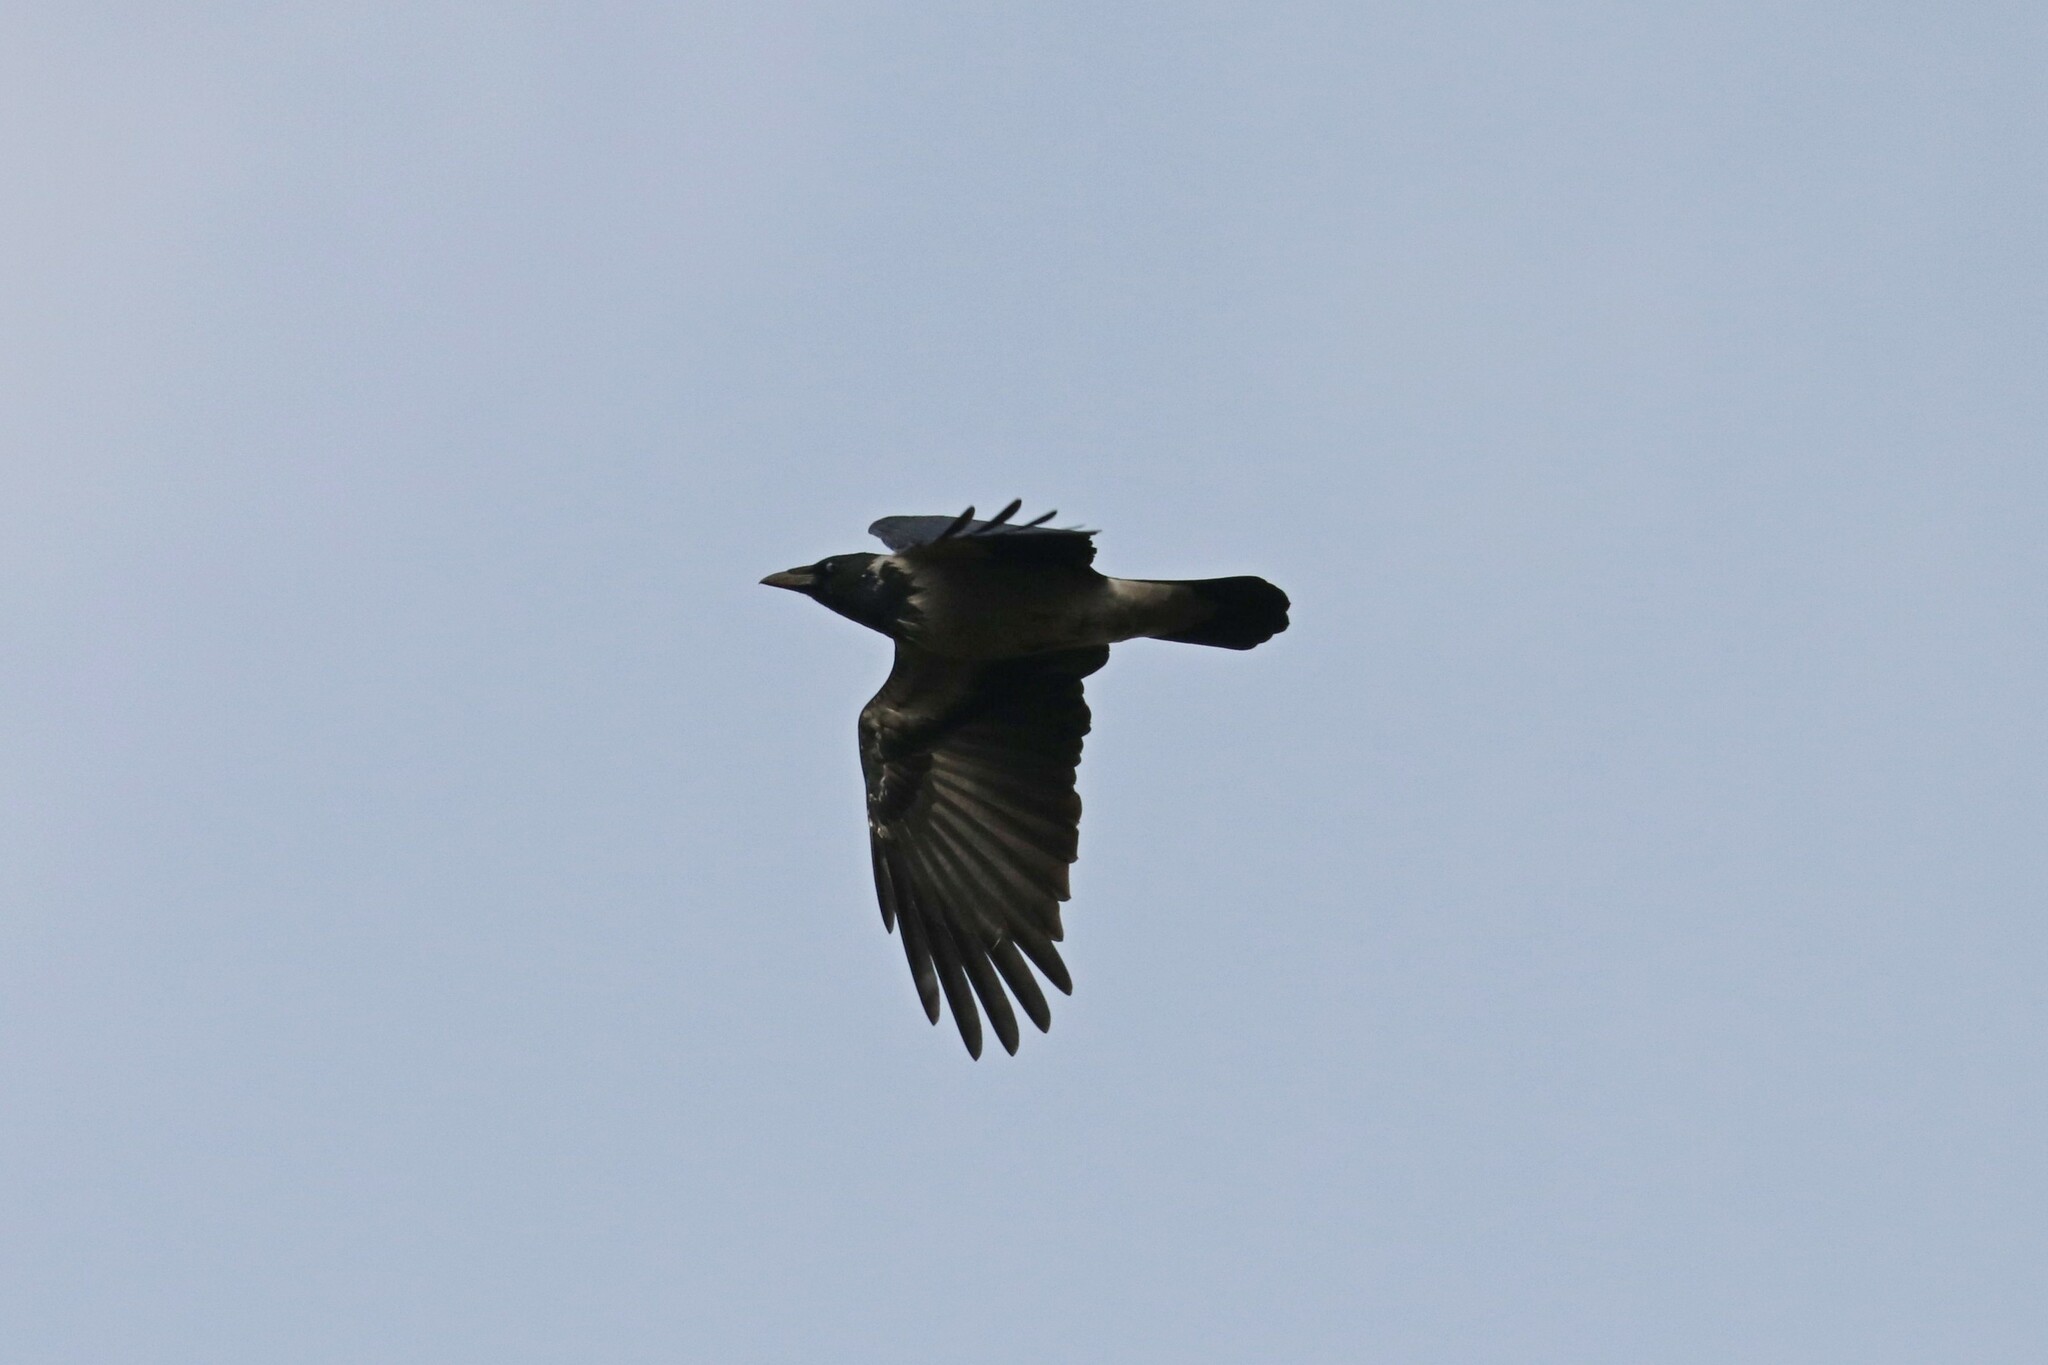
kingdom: Animalia
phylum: Chordata
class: Aves
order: Passeriformes
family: Corvidae
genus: Corvus
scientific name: Corvus cornix
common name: Hooded crow
